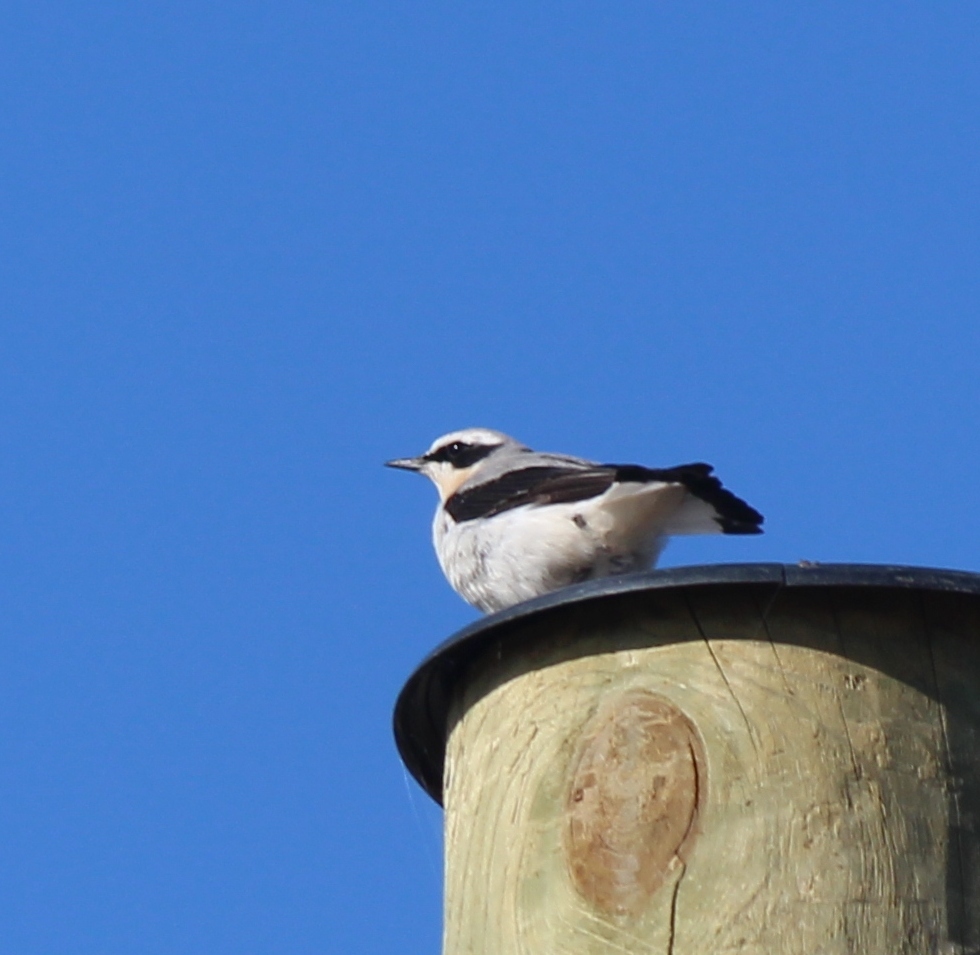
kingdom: Animalia
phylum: Chordata
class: Aves
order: Passeriformes
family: Muscicapidae
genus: Oenanthe
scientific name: Oenanthe oenanthe
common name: Northern wheatear
